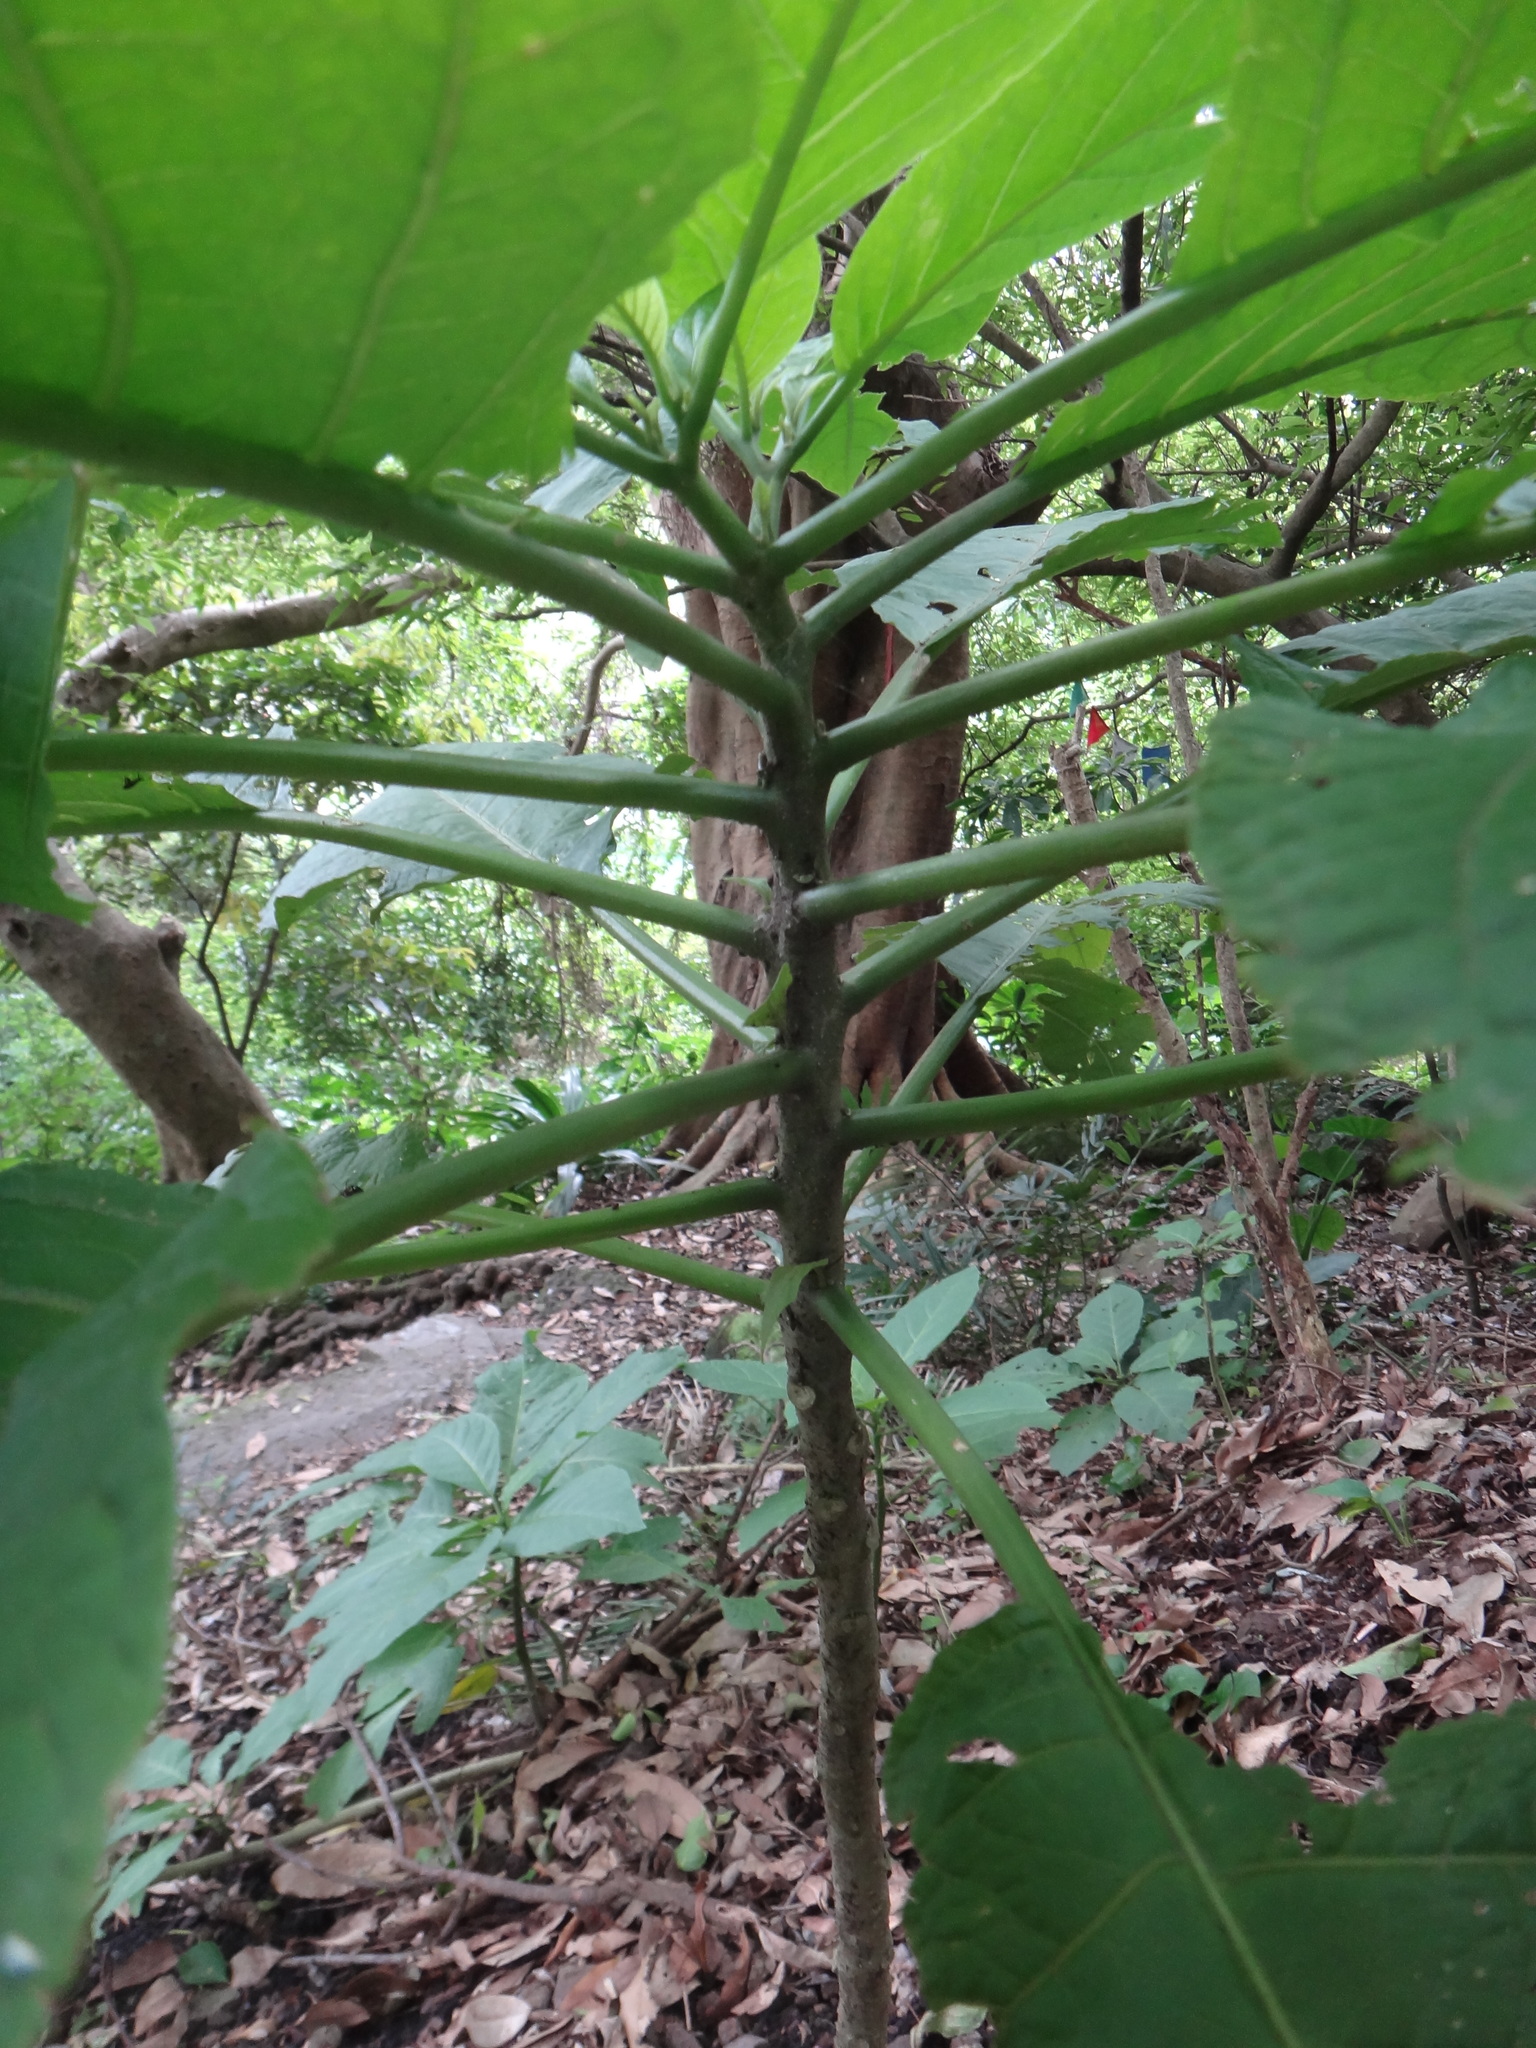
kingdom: Plantae
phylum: Tracheophyta
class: Magnoliopsida
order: Solanales
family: Solanaceae
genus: Brugmansia
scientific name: Brugmansia suaveolens
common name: Angel's tears
